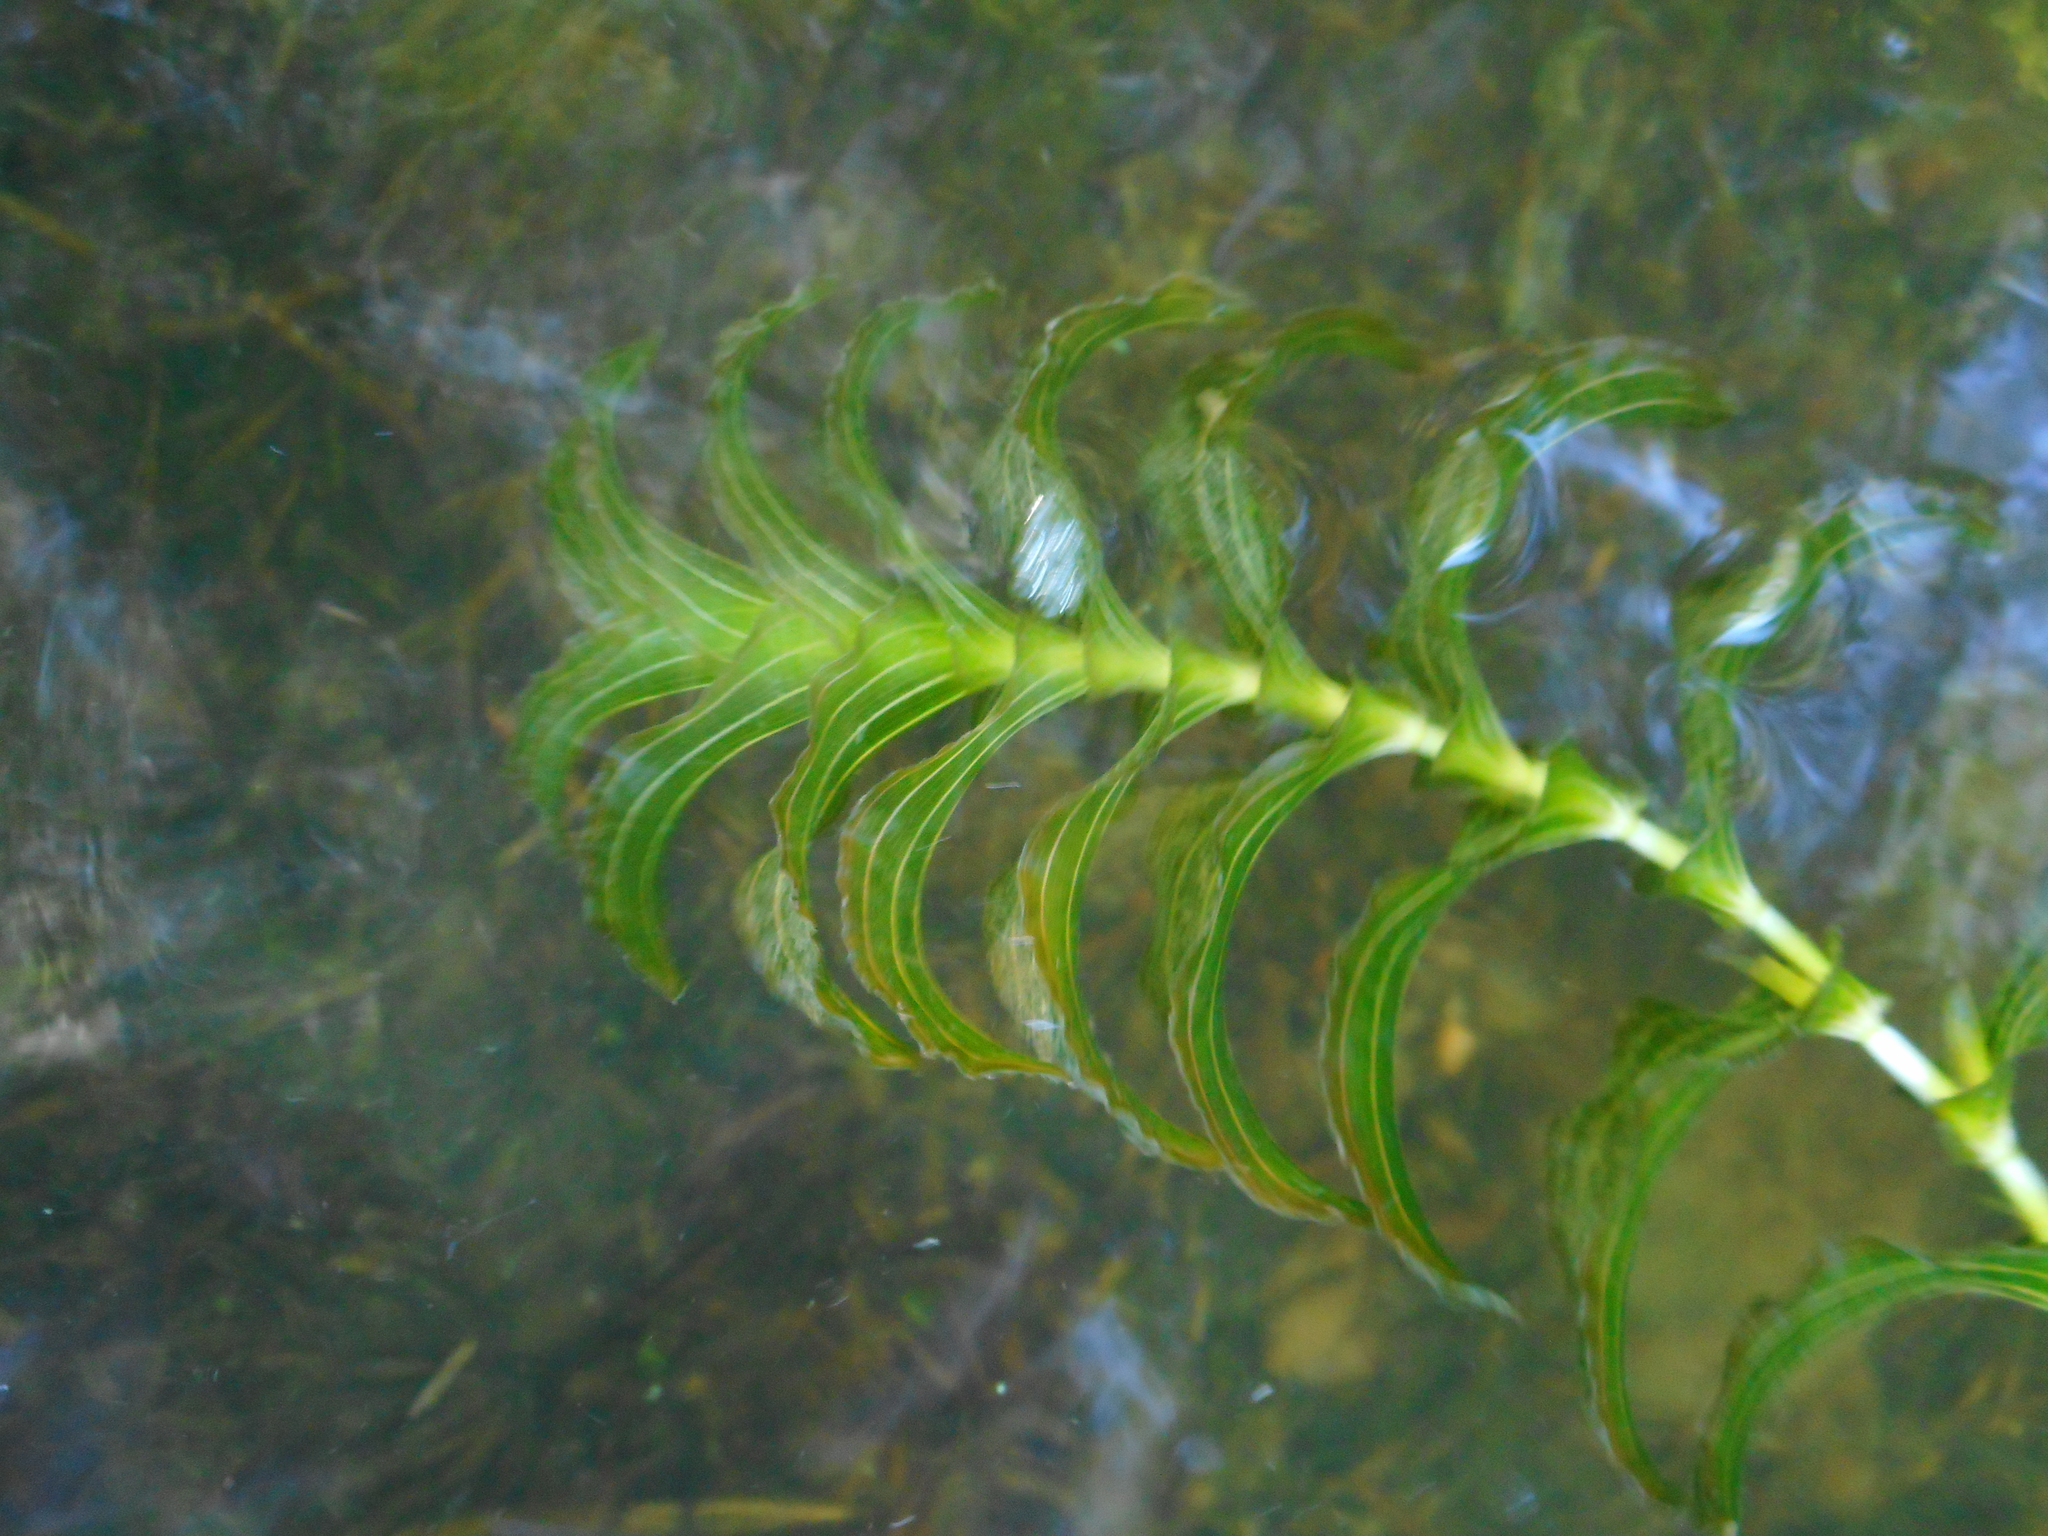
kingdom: Plantae
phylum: Tracheophyta
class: Liliopsida
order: Alismatales
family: Potamogetonaceae
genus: Potamogeton
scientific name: Potamogeton perfoliatus
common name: Perfoliate pondweed
